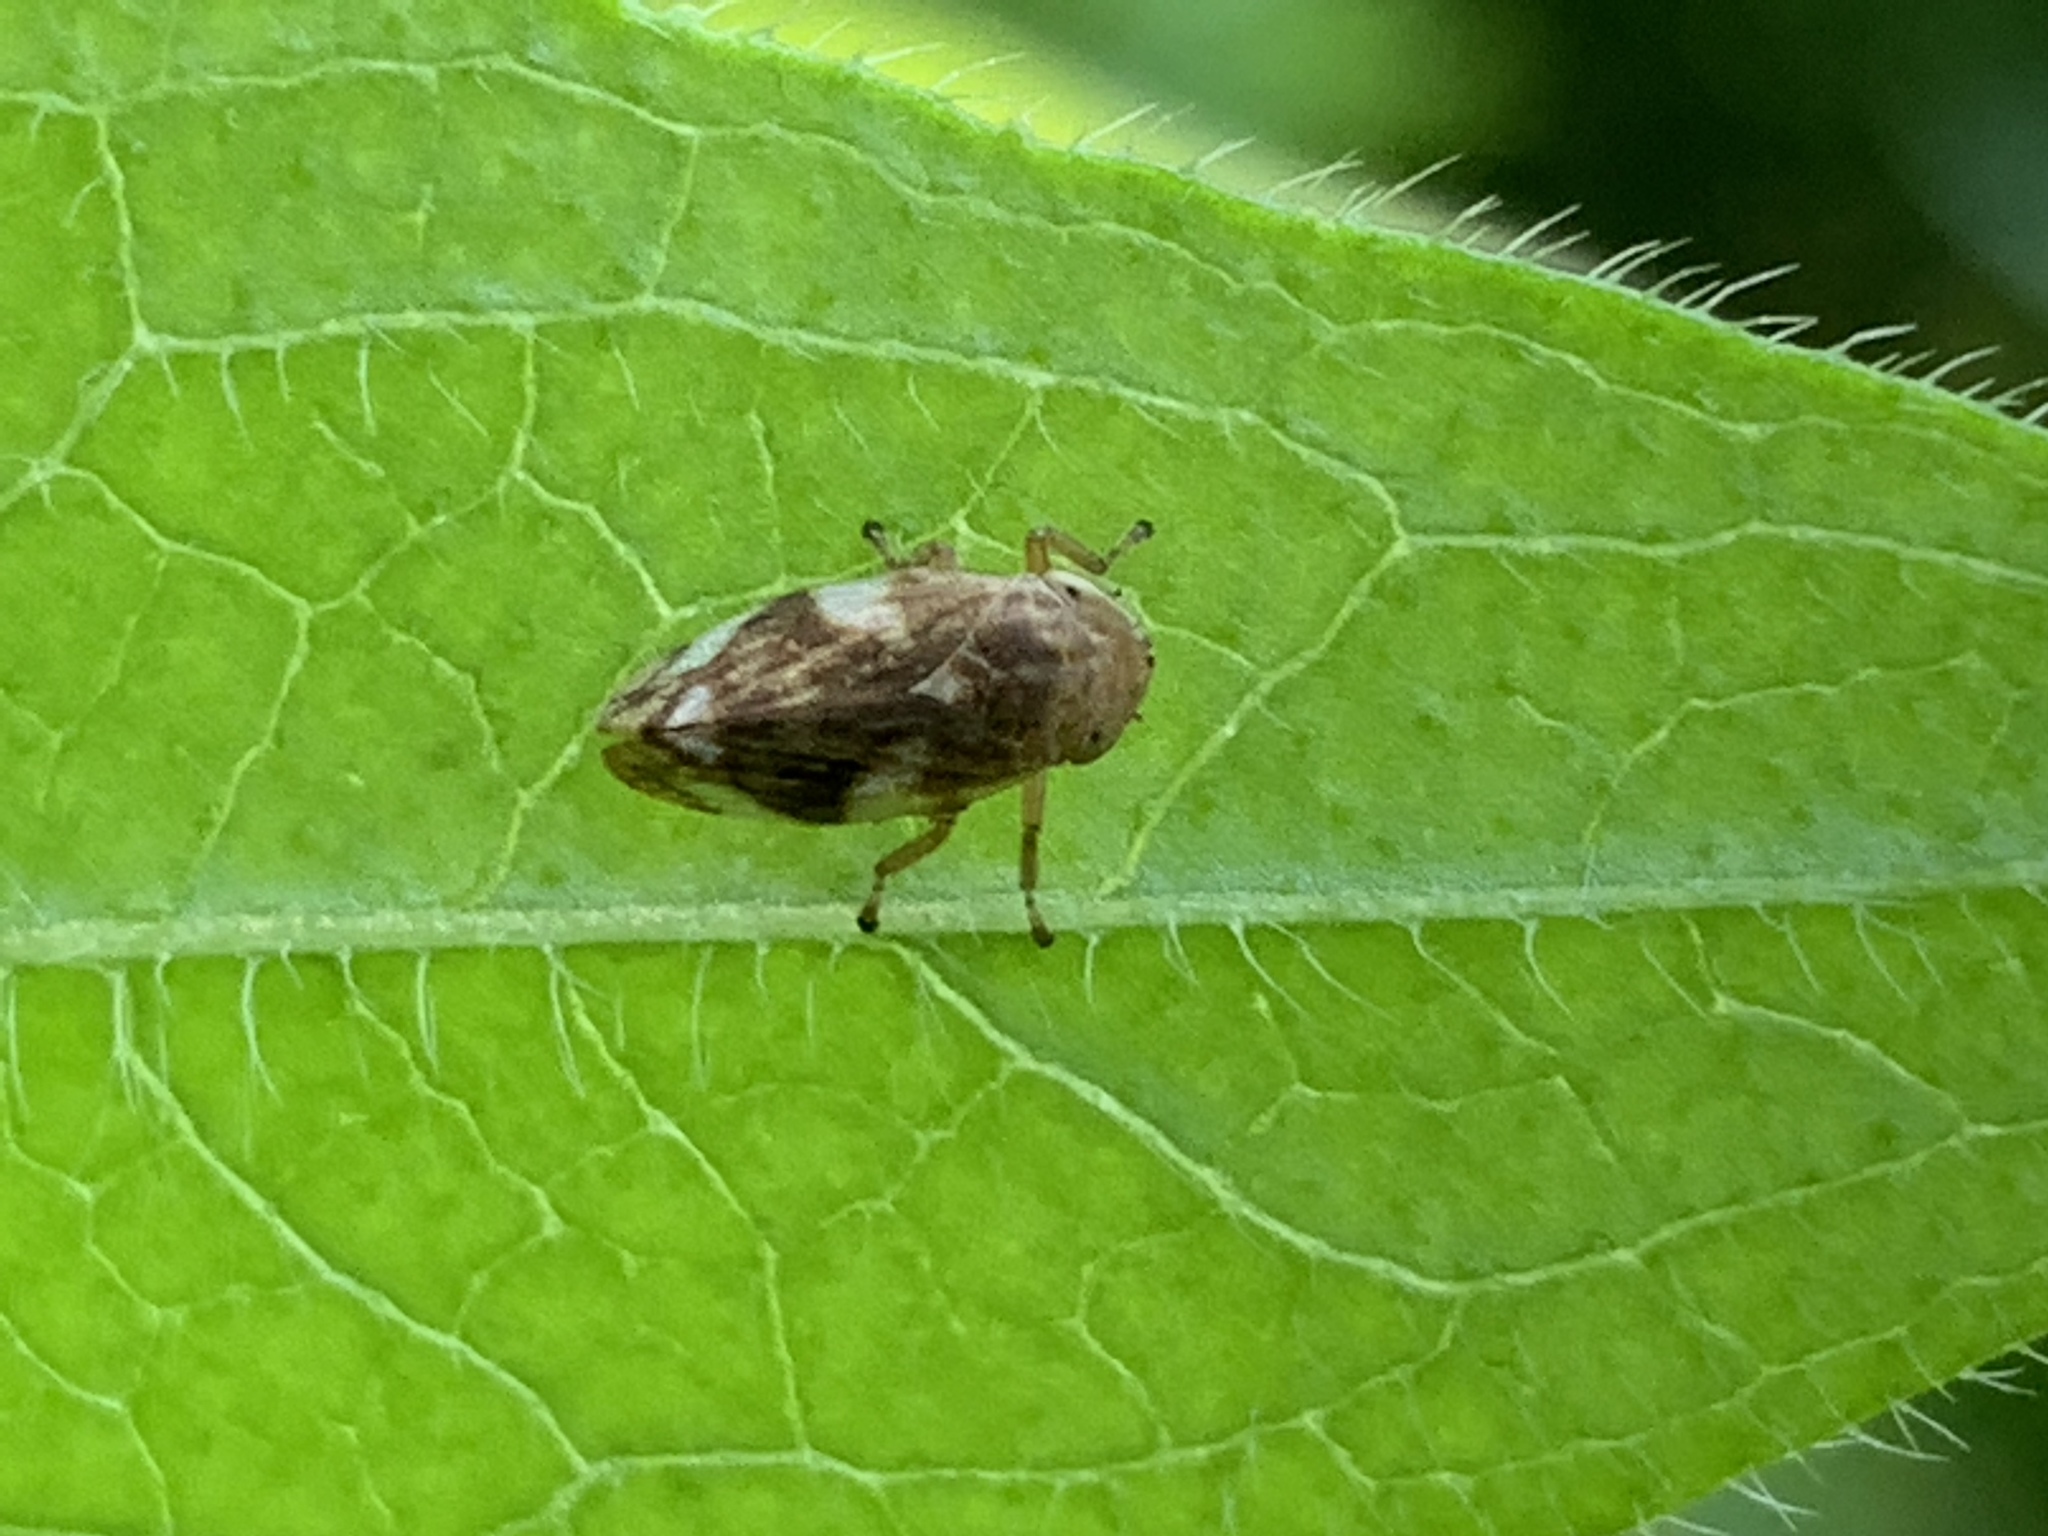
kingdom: Animalia
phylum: Arthropoda
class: Insecta
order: Hemiptera
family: Aphrophoridae
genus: Philaenus
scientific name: Philaenus spumarius
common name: Meadow spittlebug
